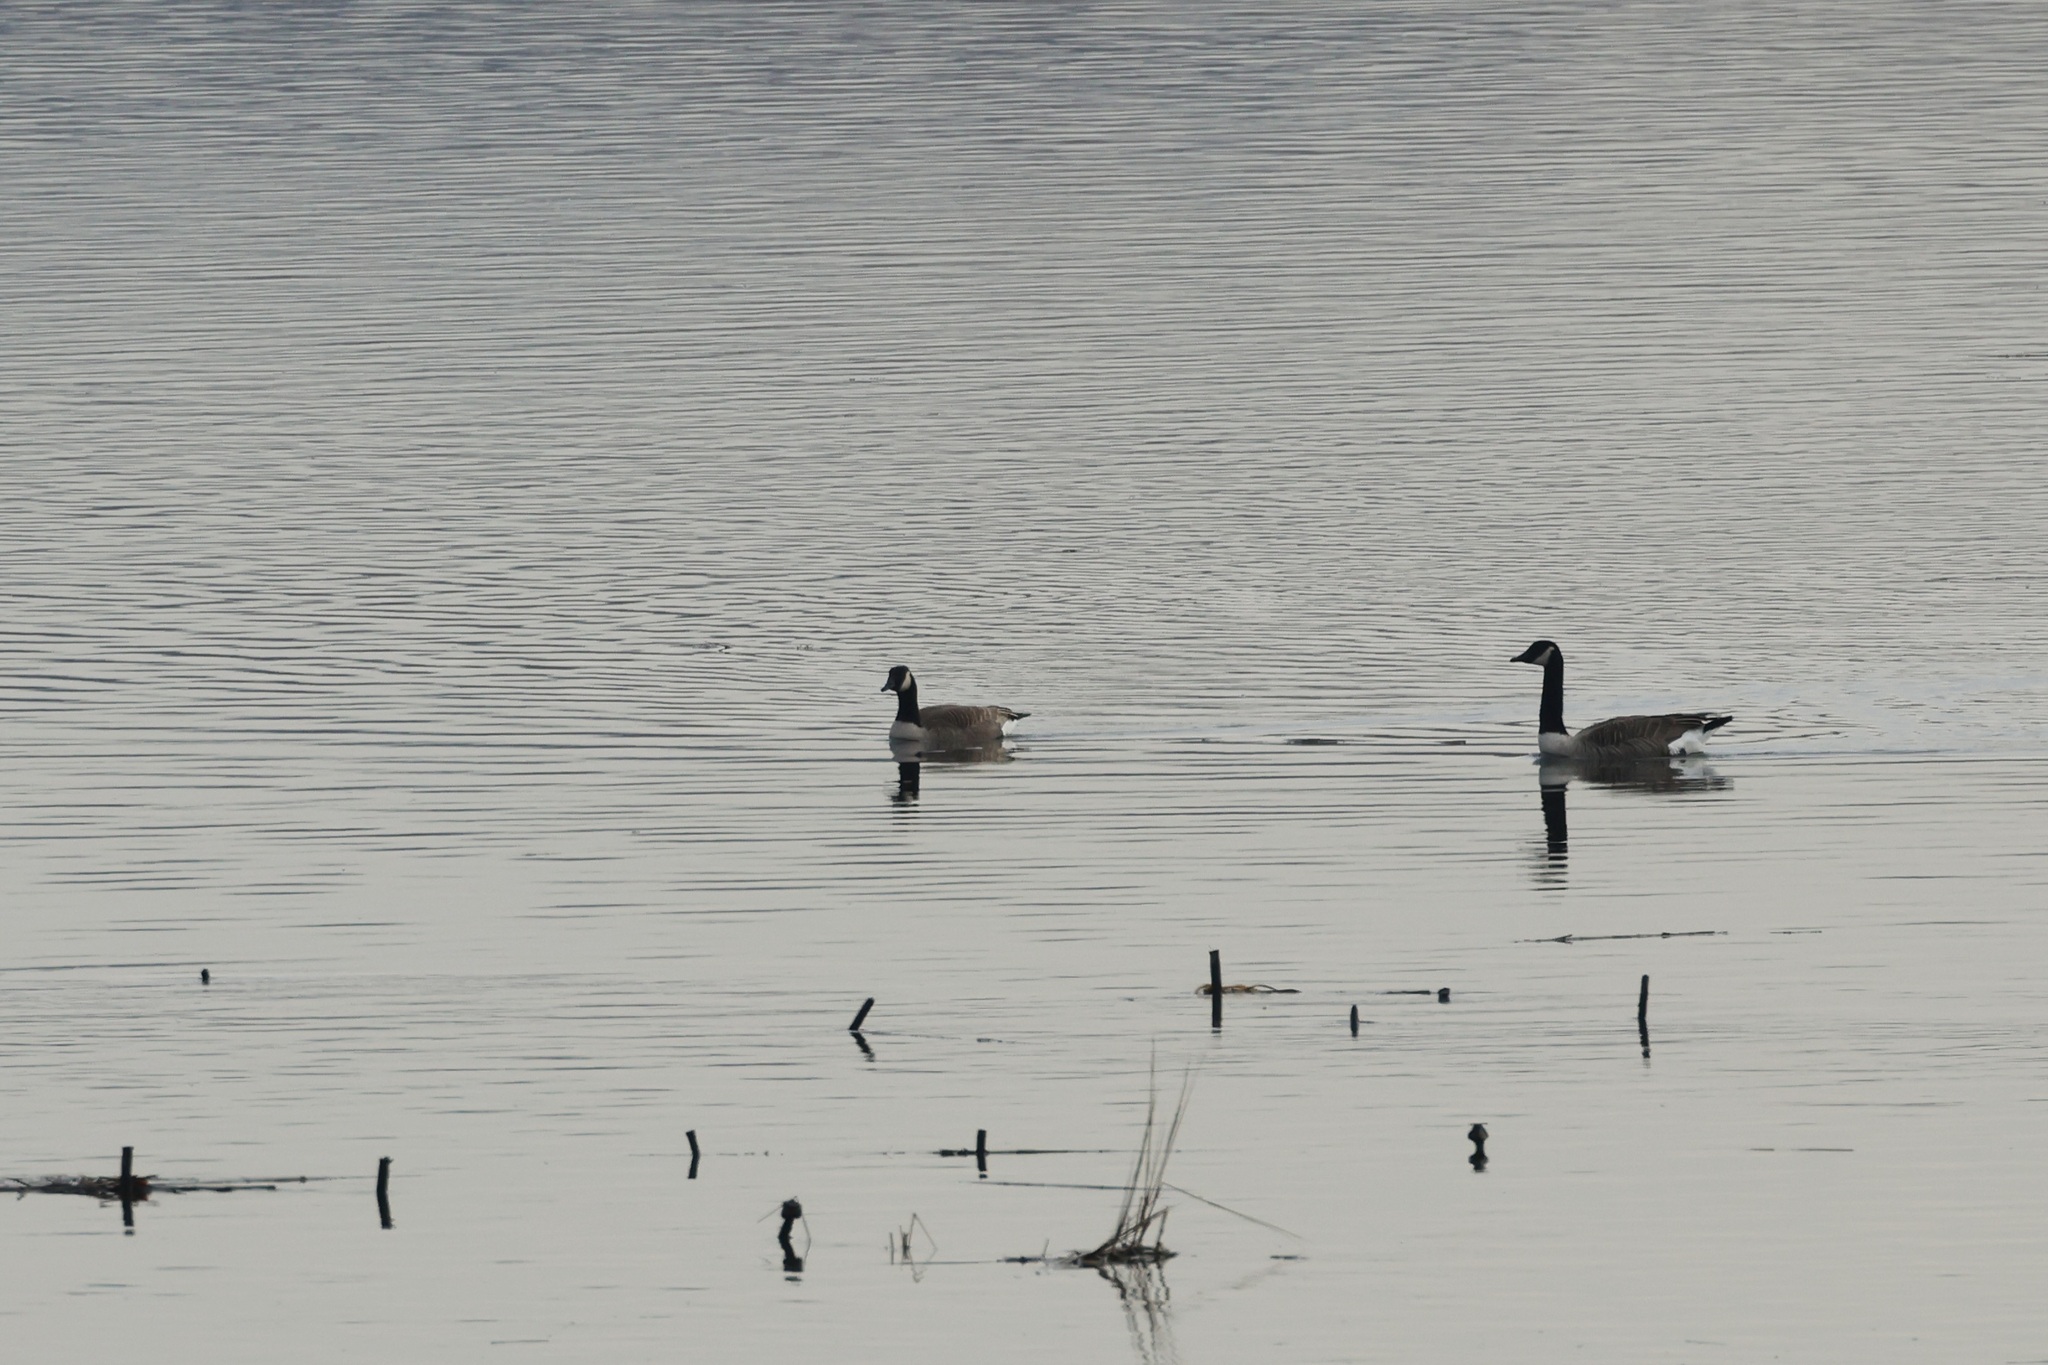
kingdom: Animalia
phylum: Chordata
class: Aves
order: Anseriformes
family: Anatidae
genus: Branta
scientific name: Branta canadensis
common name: Canada goose
